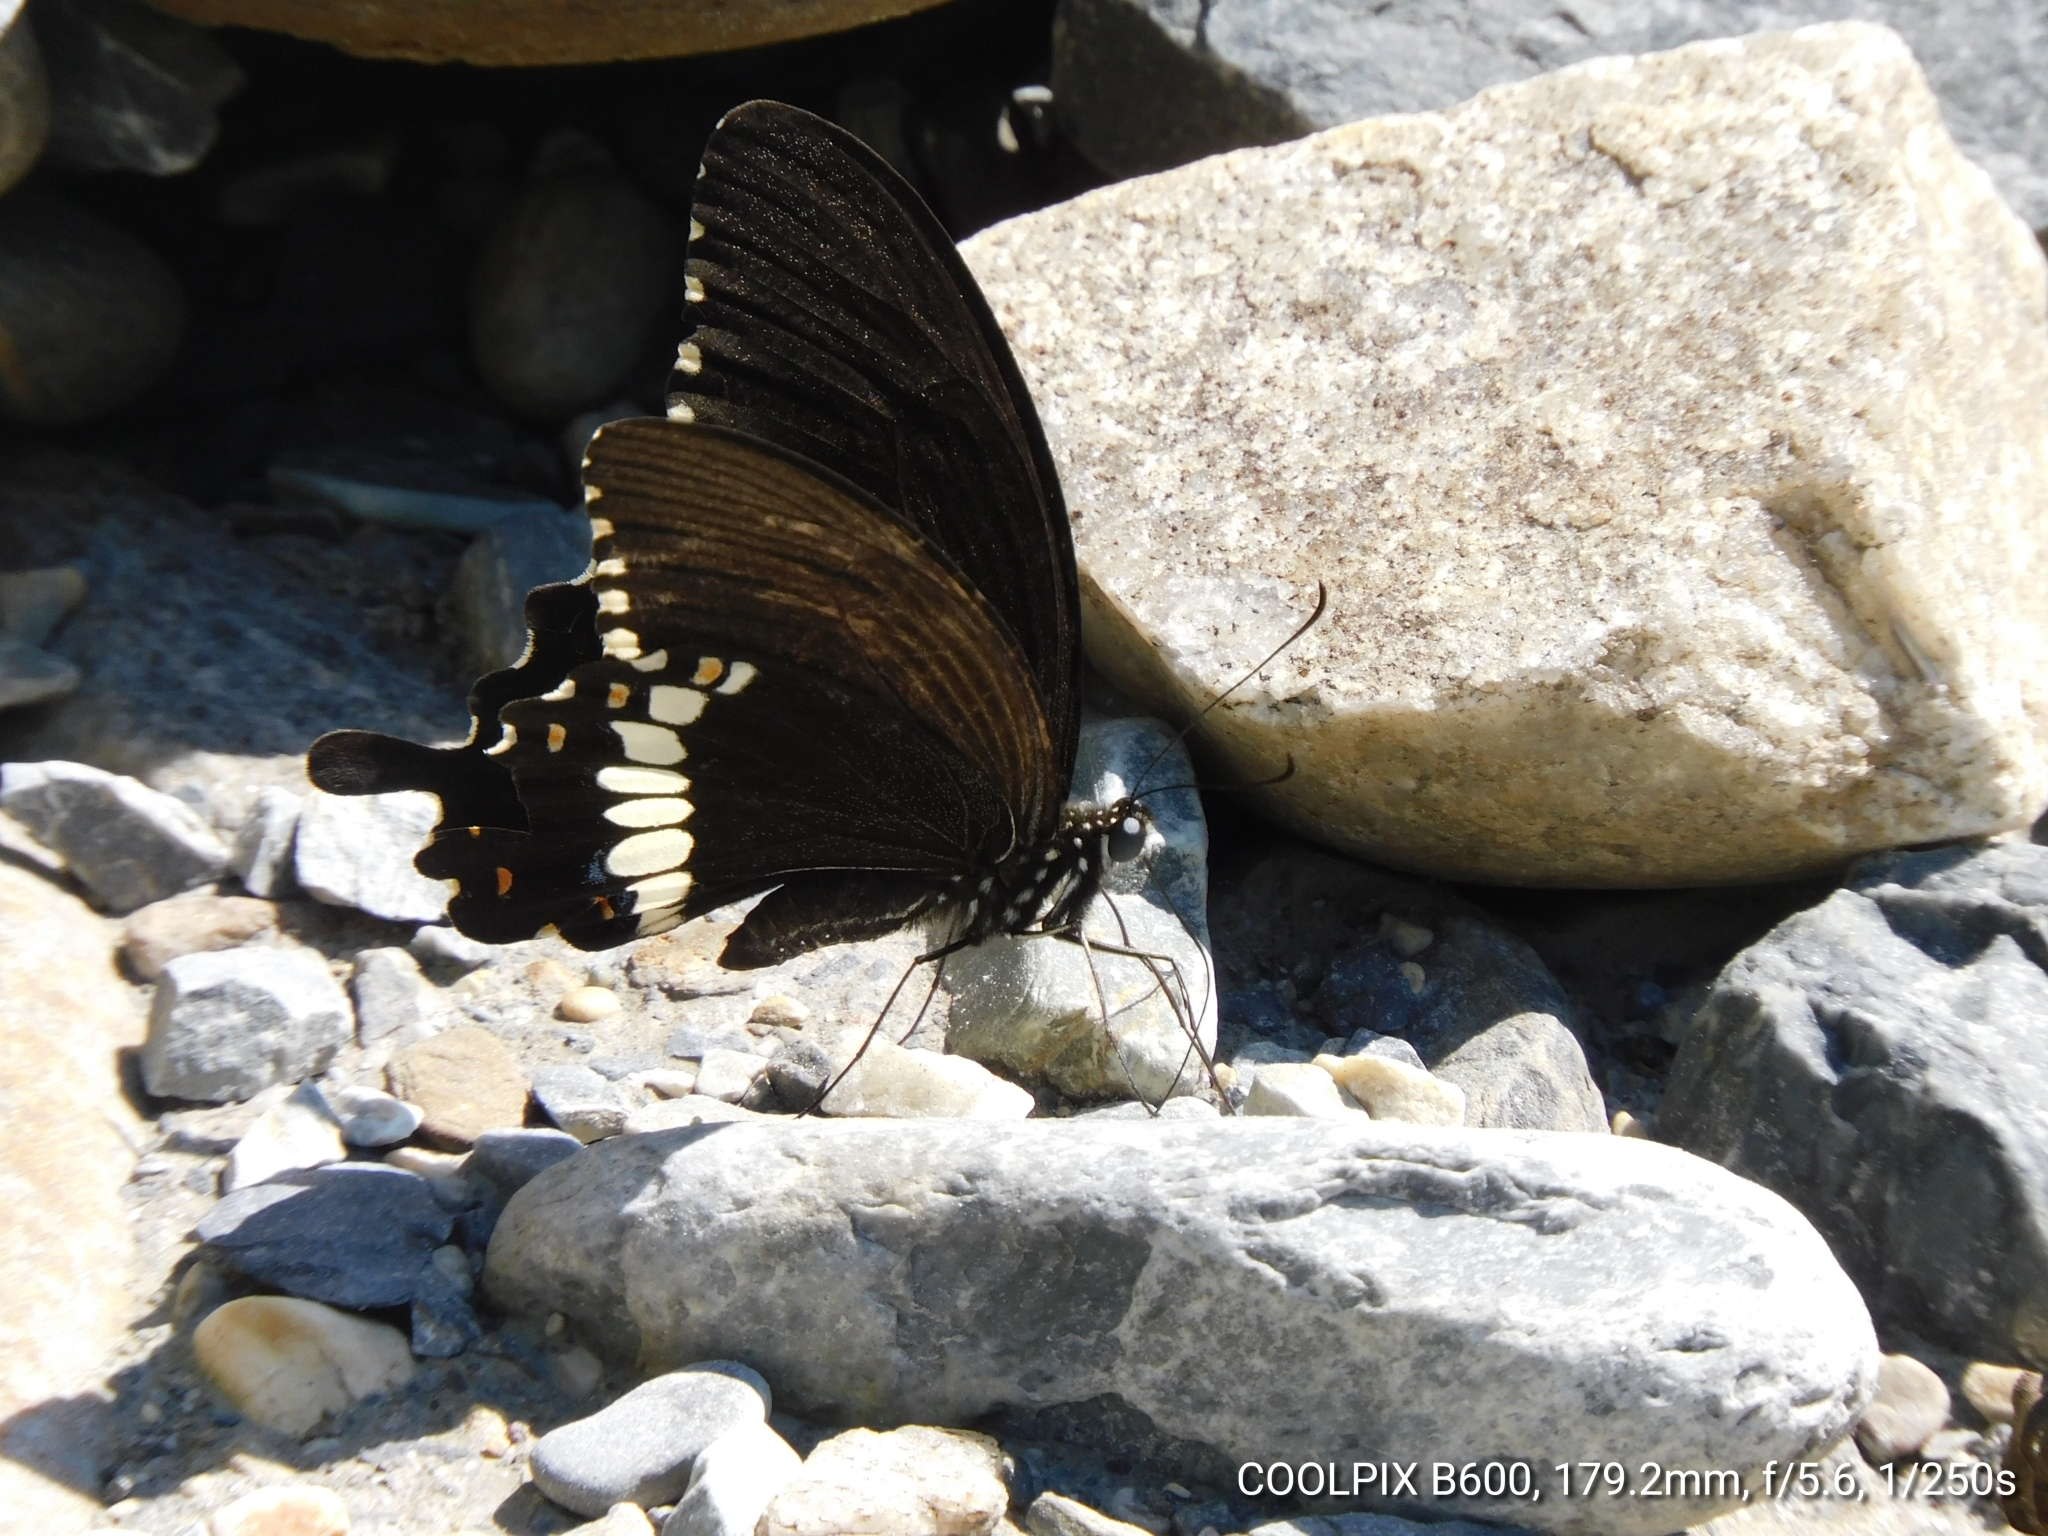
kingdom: Animalia
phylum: Arthropoda
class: Insecta
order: Lepidoptera
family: Papilionidae
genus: Papilio
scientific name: Papilio polytes
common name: Common mormon
